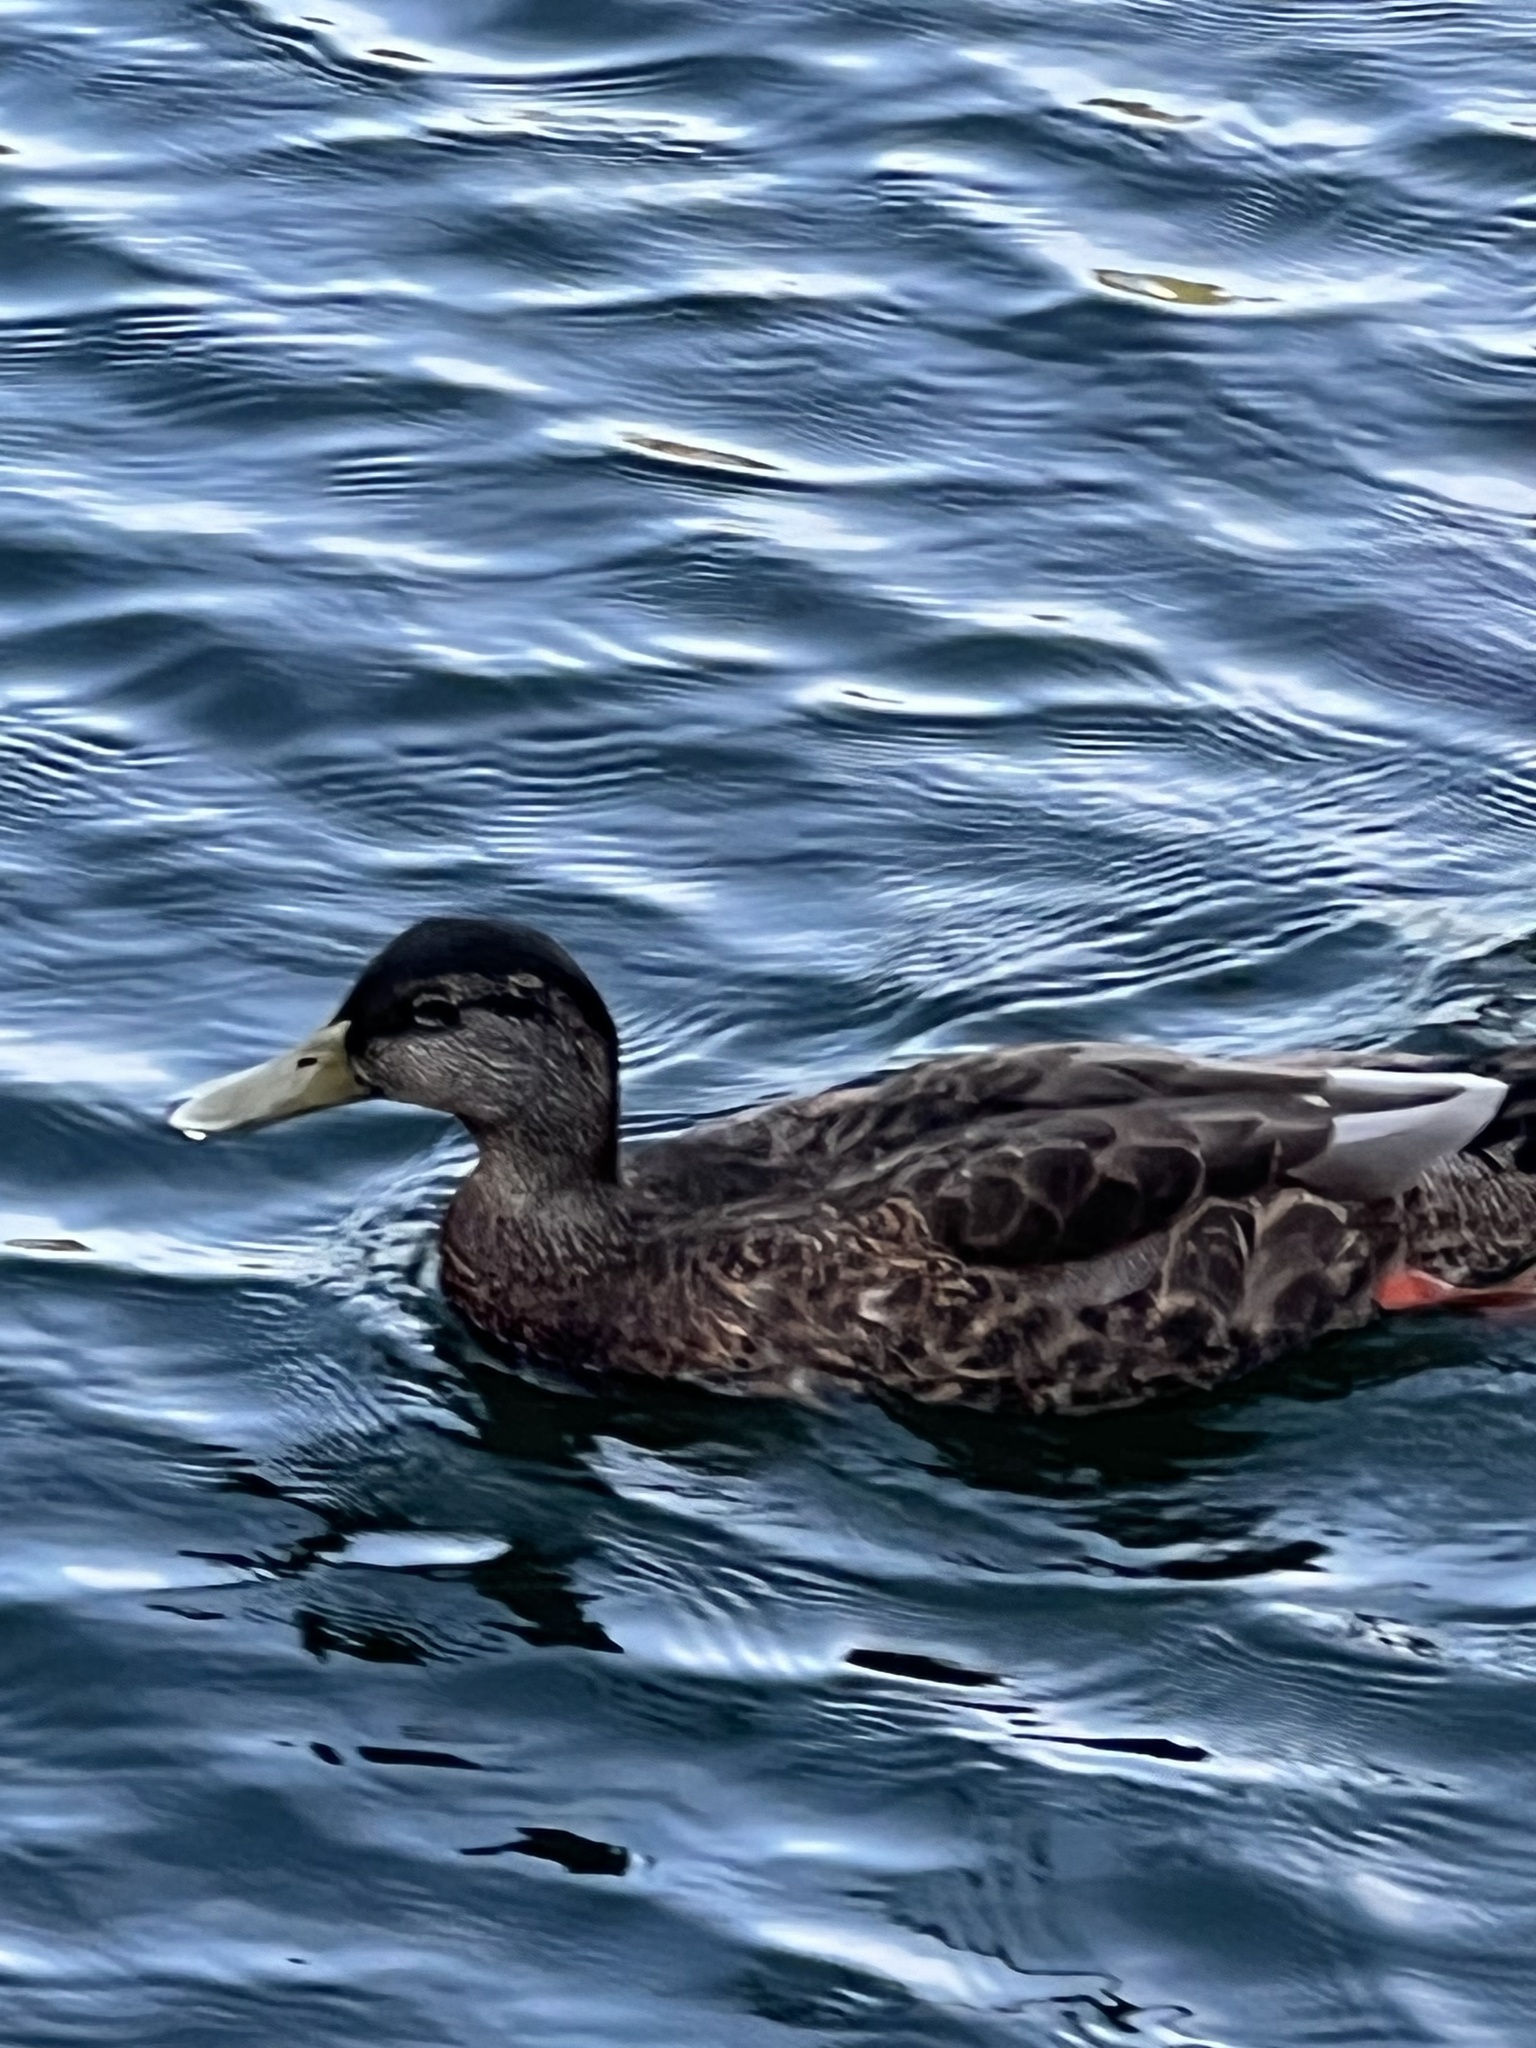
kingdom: Animalia
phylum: Chordata
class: Aves
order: Anseriformes
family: Anatidae
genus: Anas
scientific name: Anas platyrhynchos
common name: Mallard
